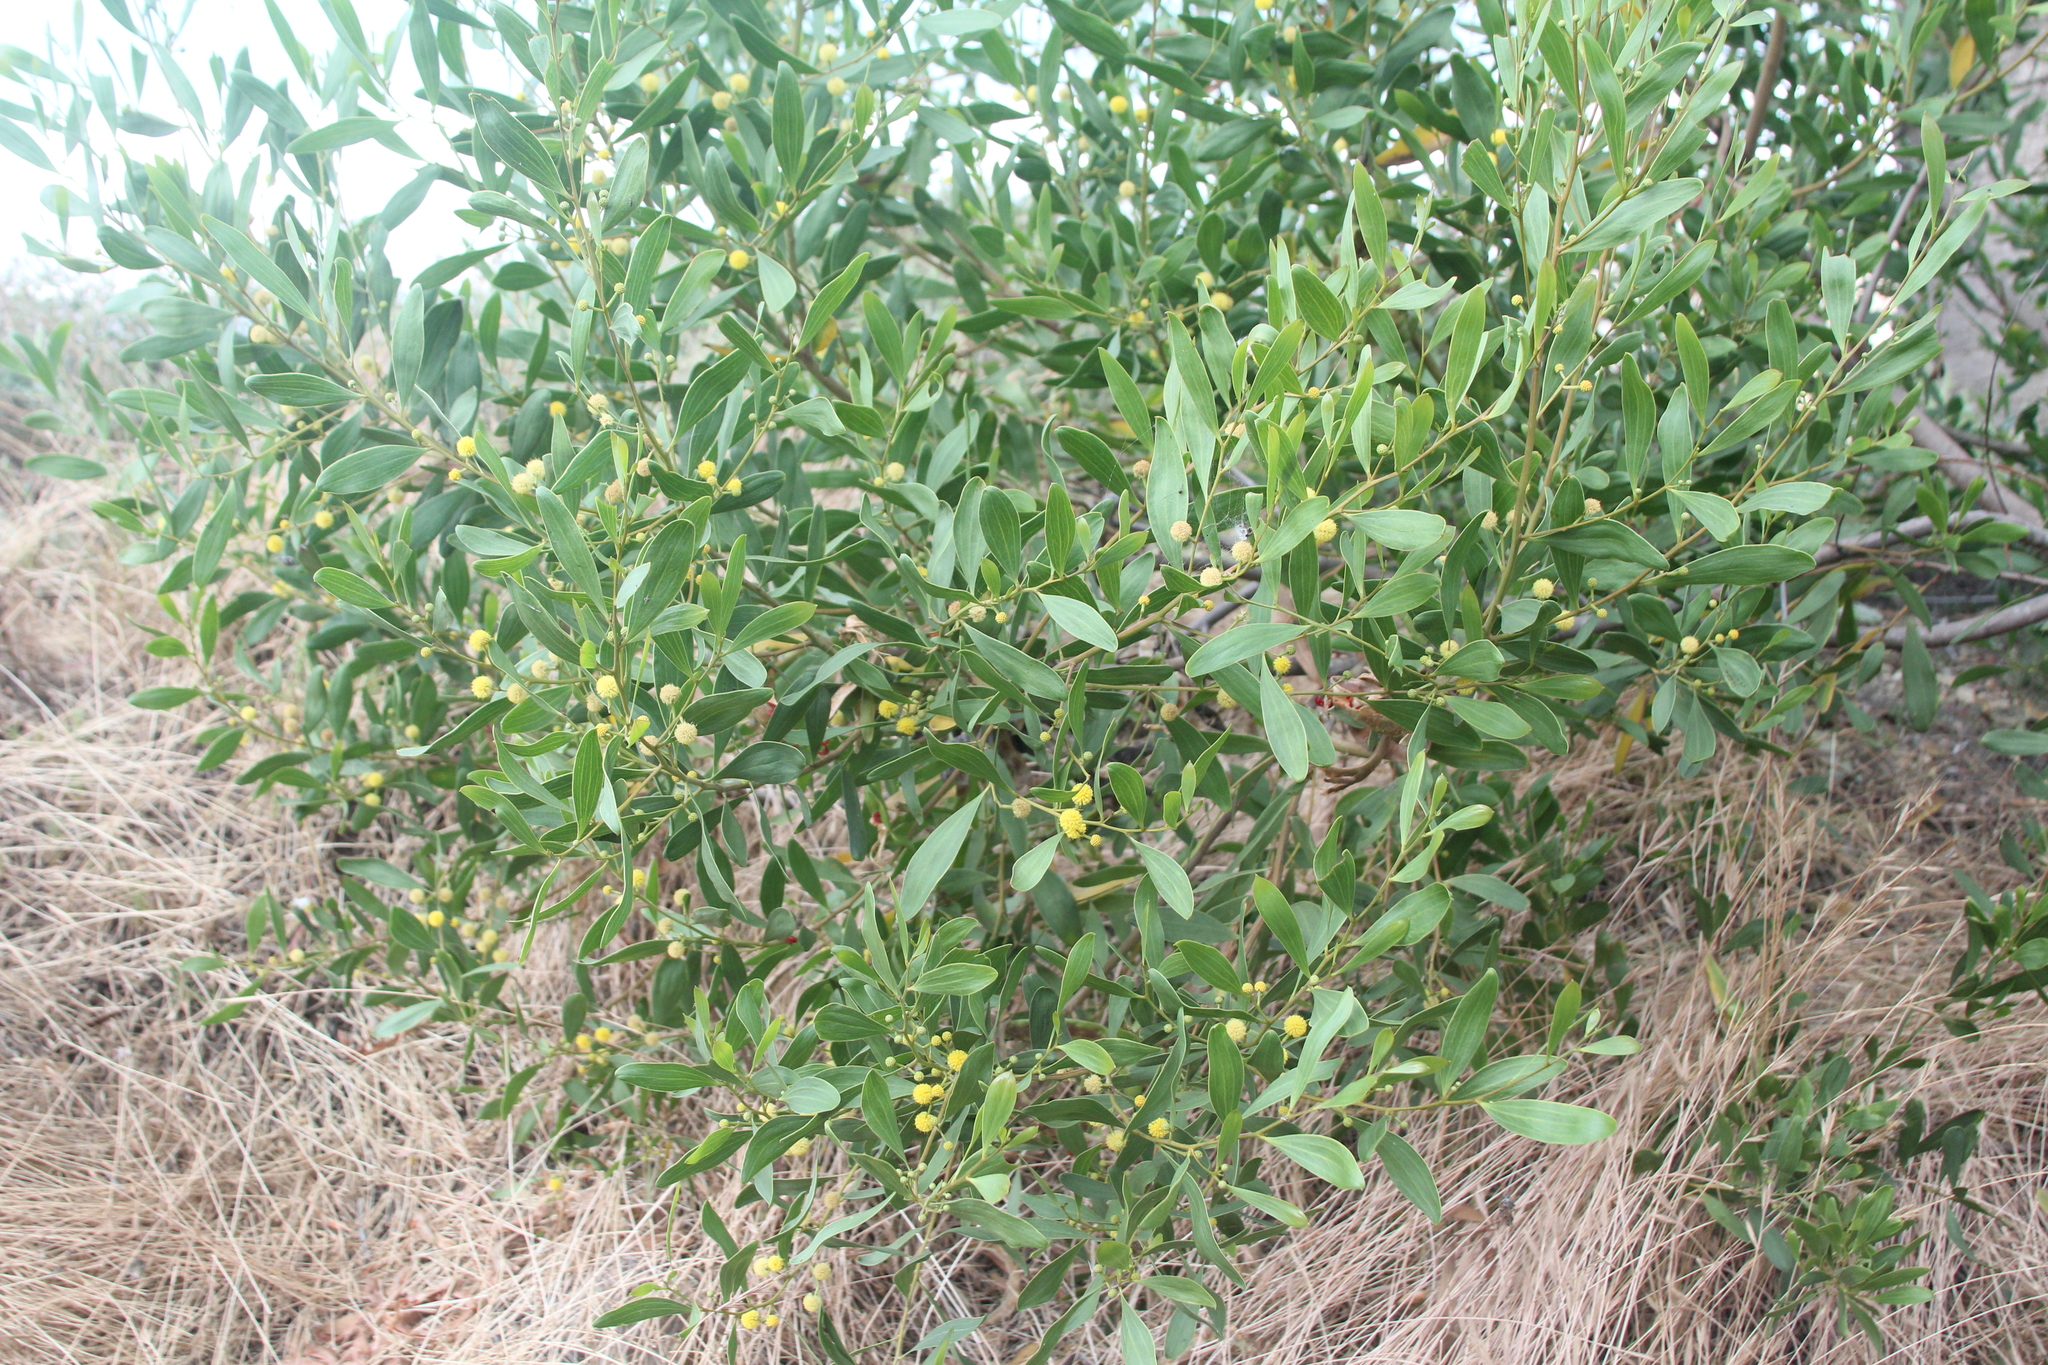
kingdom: Plantae
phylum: Tracheophyta
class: Magnoliopsida
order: Fabales
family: Fabaceae
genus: Acacia
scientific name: Acacia cyclops
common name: Coastal wattle
